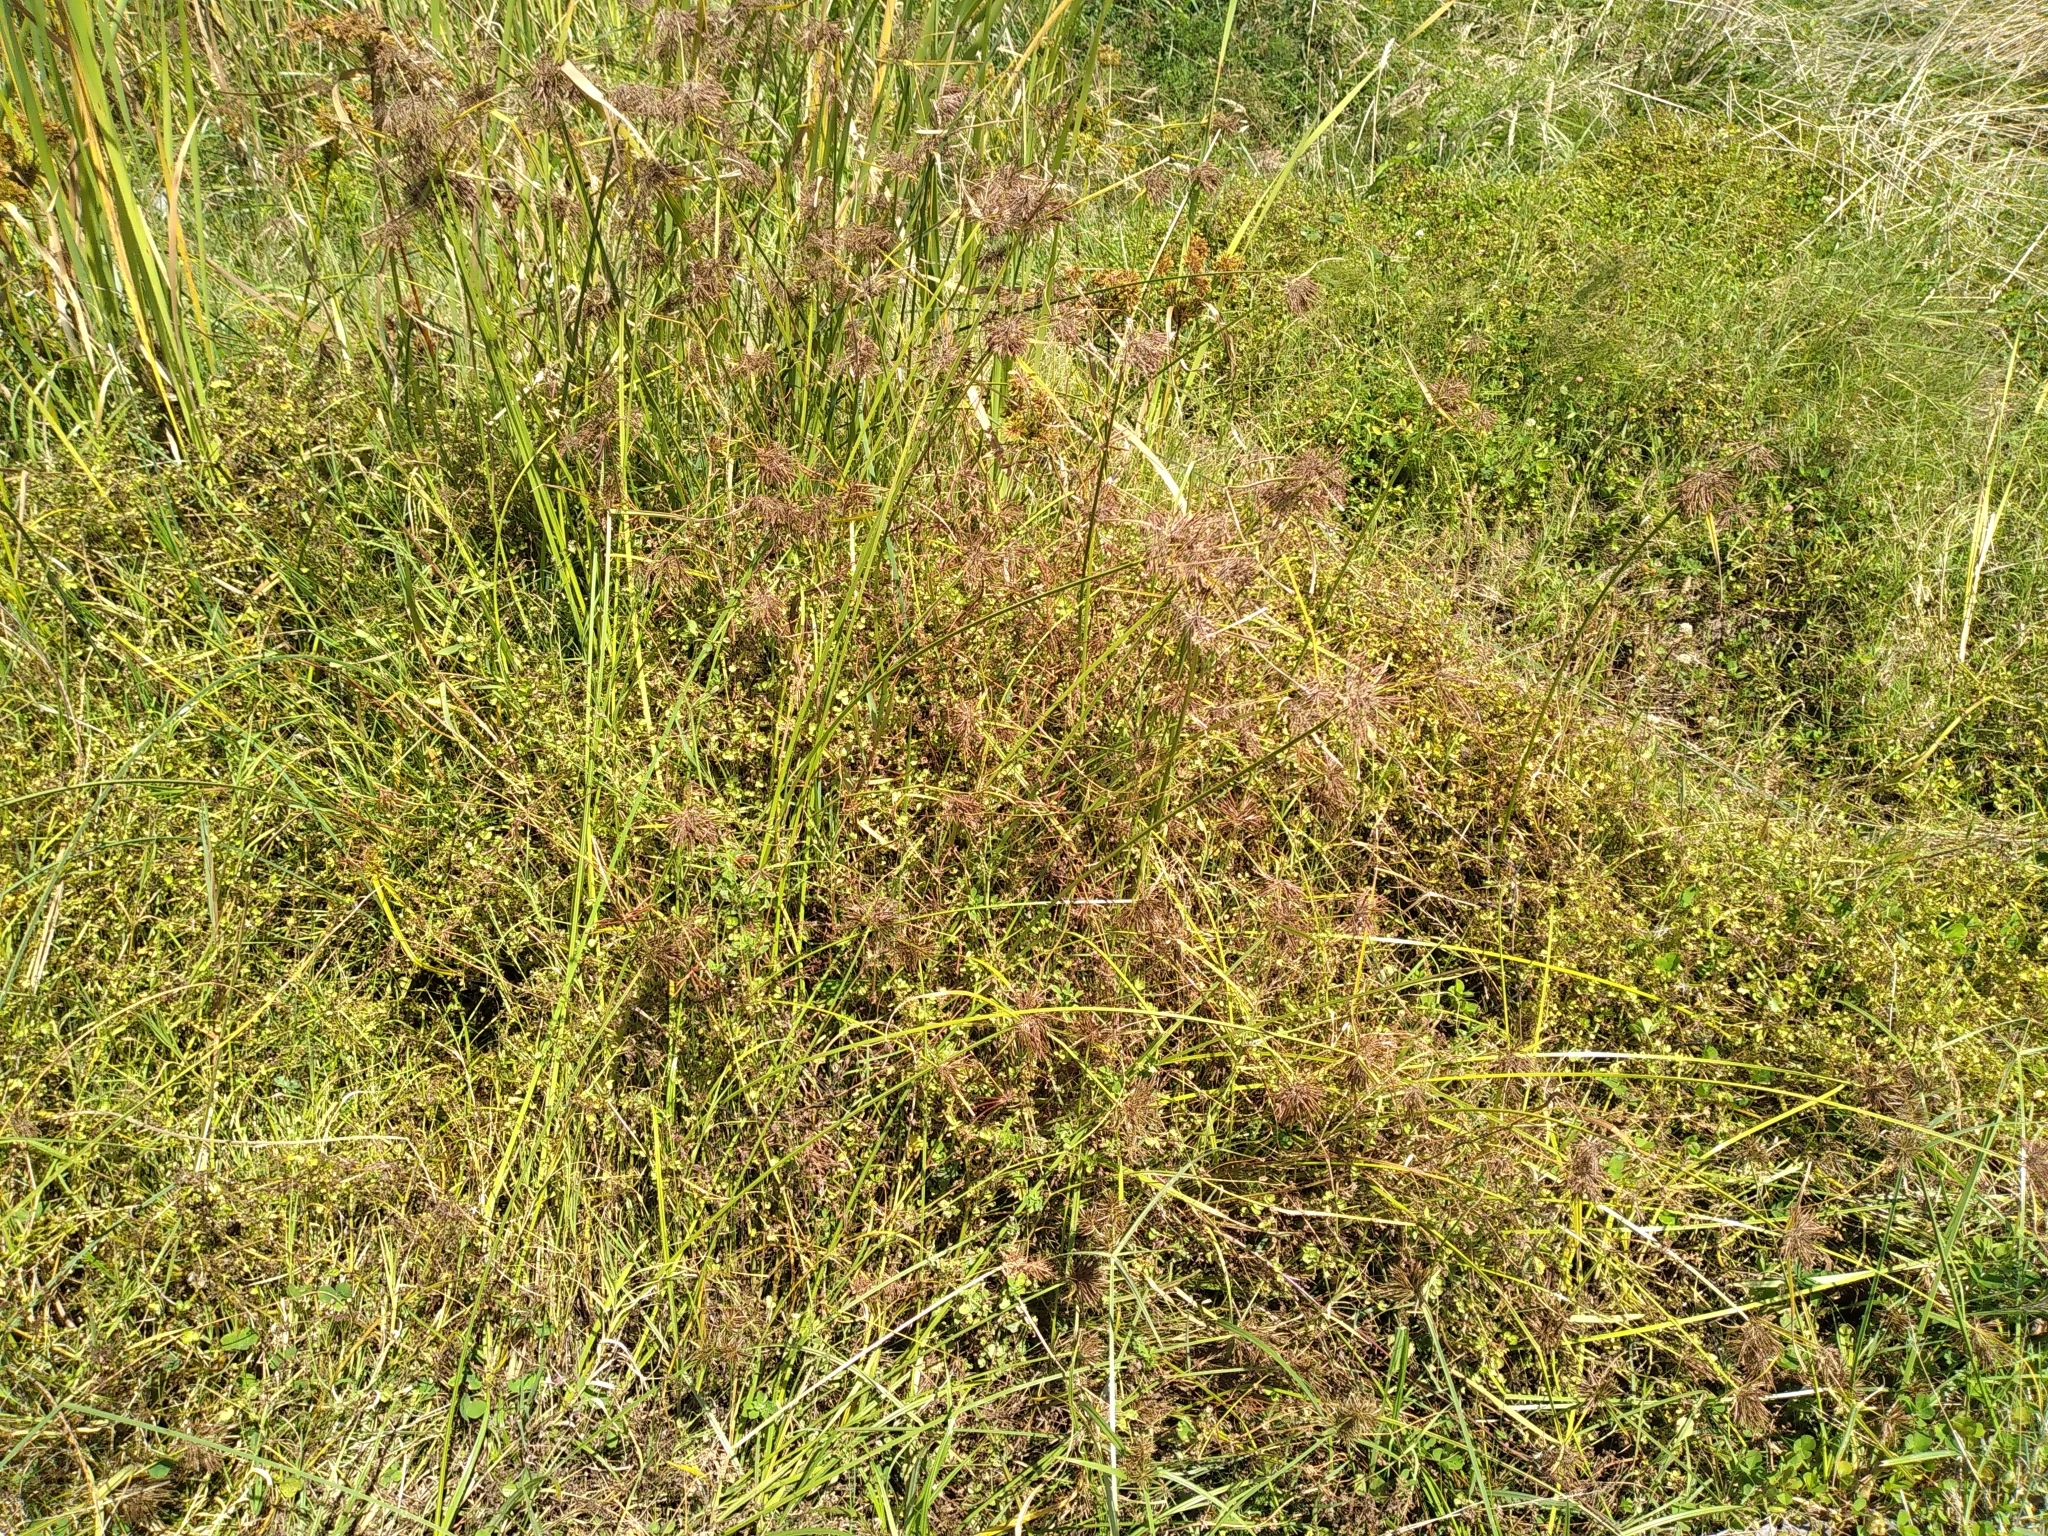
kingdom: Plantae
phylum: Tracheophyta
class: Liliopsida
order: Poales
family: Cyperaceae
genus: Cyperus
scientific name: Cyperus congestus
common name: Dense flat sedge
